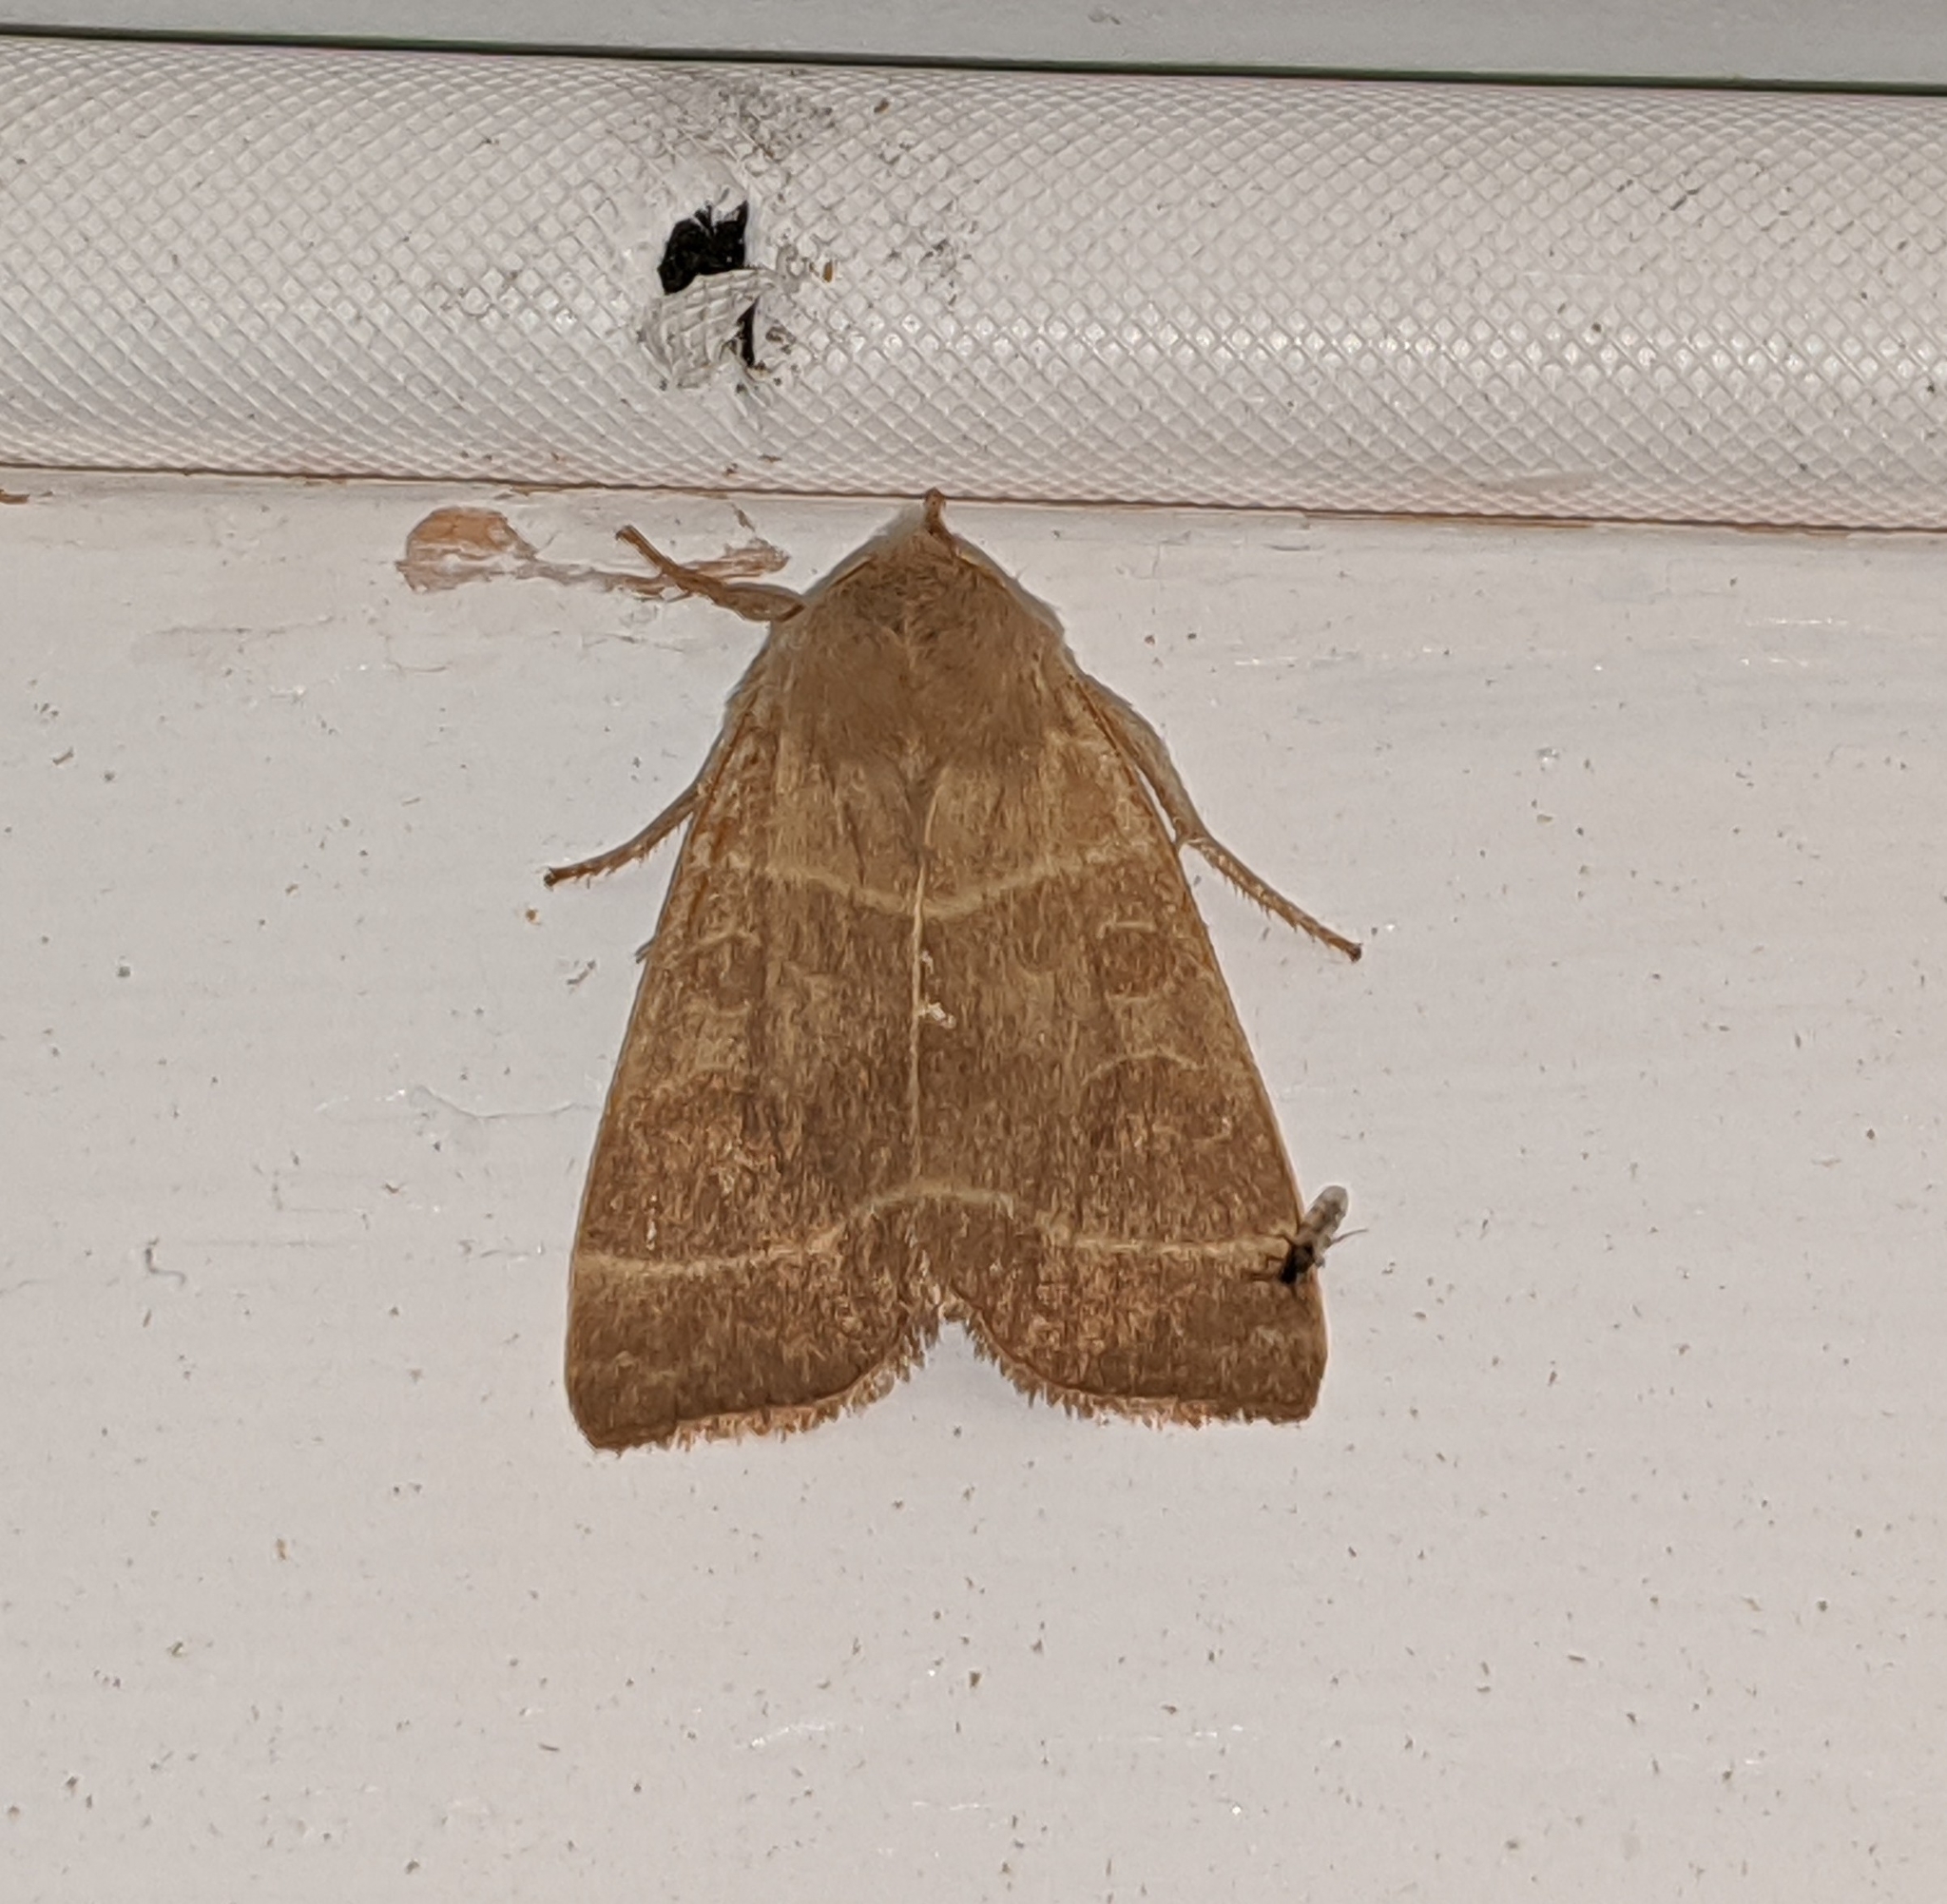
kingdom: Animalia
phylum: Arthropoda
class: Insecta
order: Lepidoptera
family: Noctuidae
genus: Ipimorpha
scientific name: Ipimorpha pleonectusa
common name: Even-lined sallow
